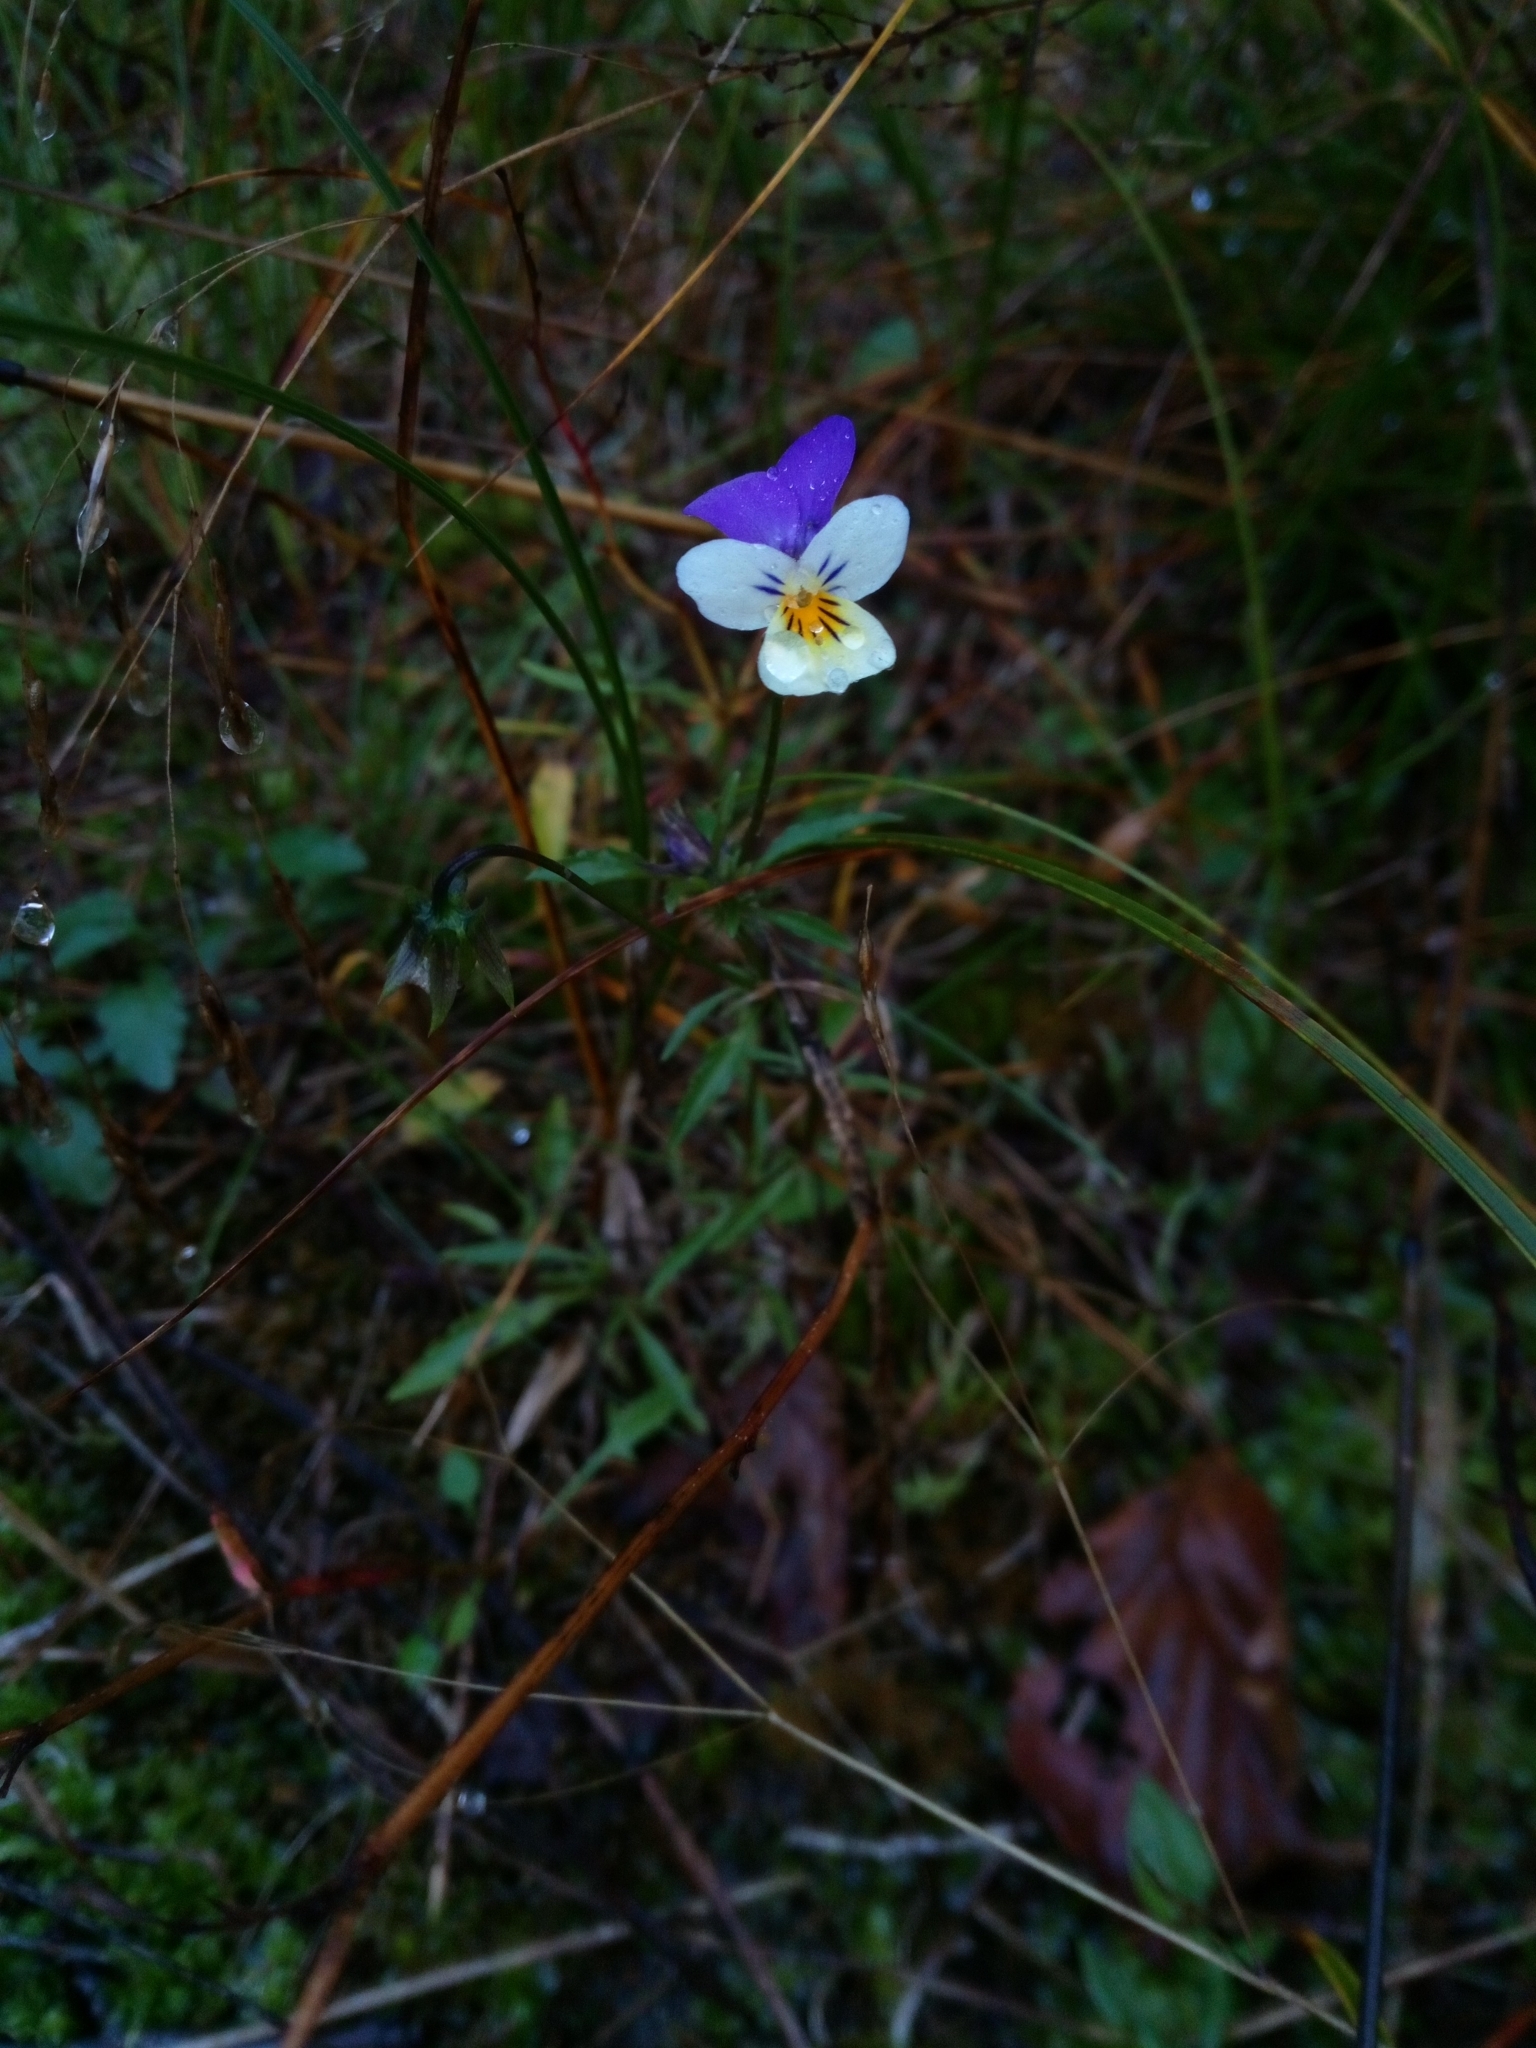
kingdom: Plantae
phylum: Tracheophyta
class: Magnoliopsida
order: Malpighiales
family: Violaceae
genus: Viola
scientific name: Viola tricolor
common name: Pansy
